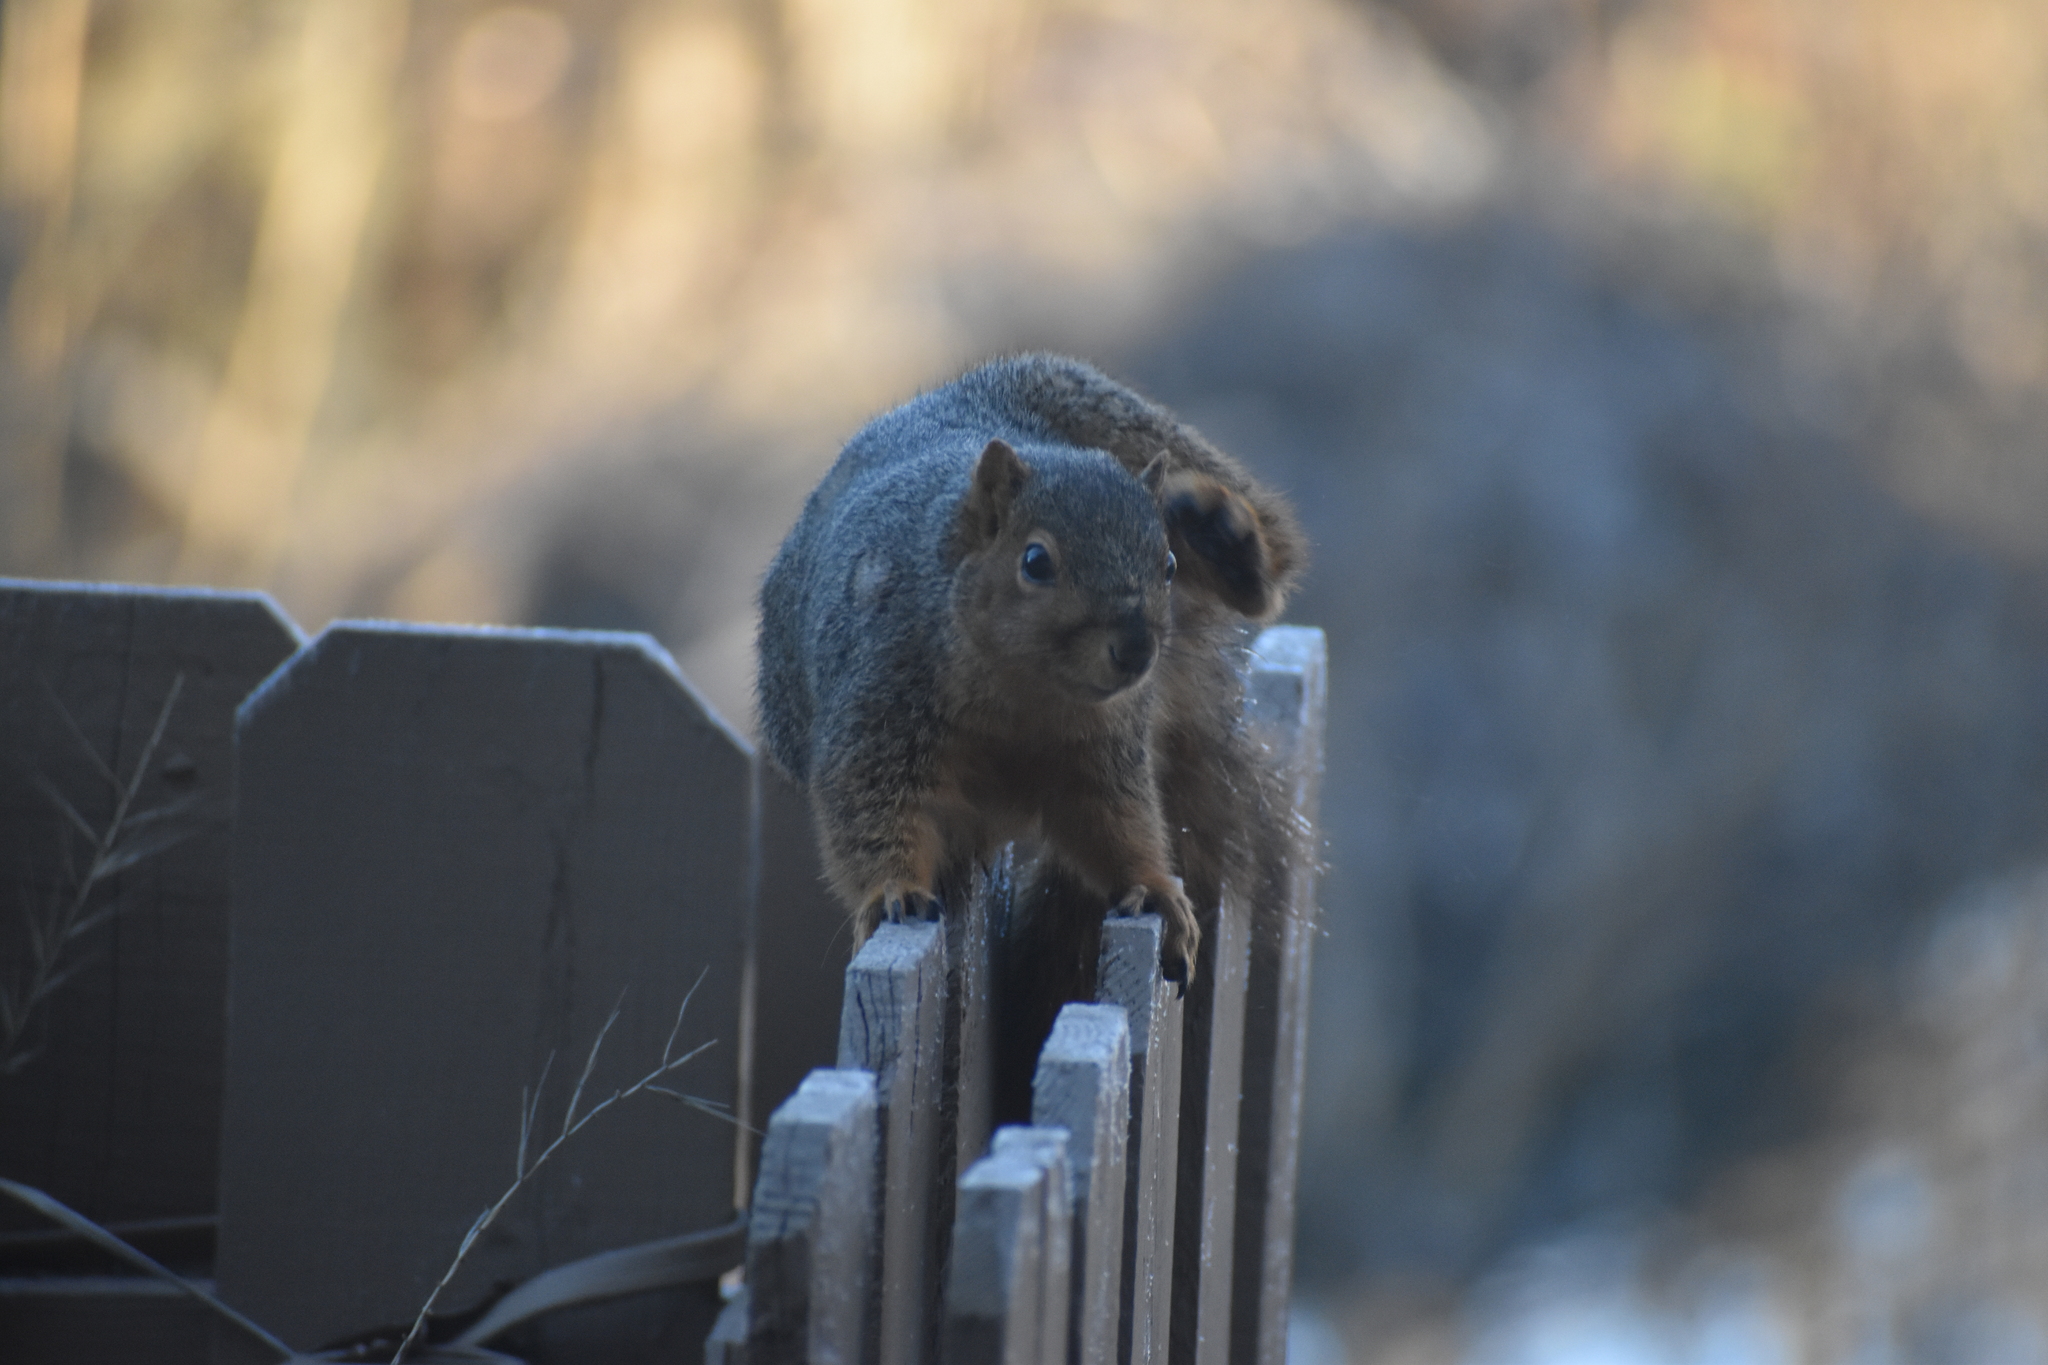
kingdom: Animalia
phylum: Chordata
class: Mammalia
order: Rodentia
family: Sciuridae
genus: Sciurus
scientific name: Sciurus niger
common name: Fox squirrel
